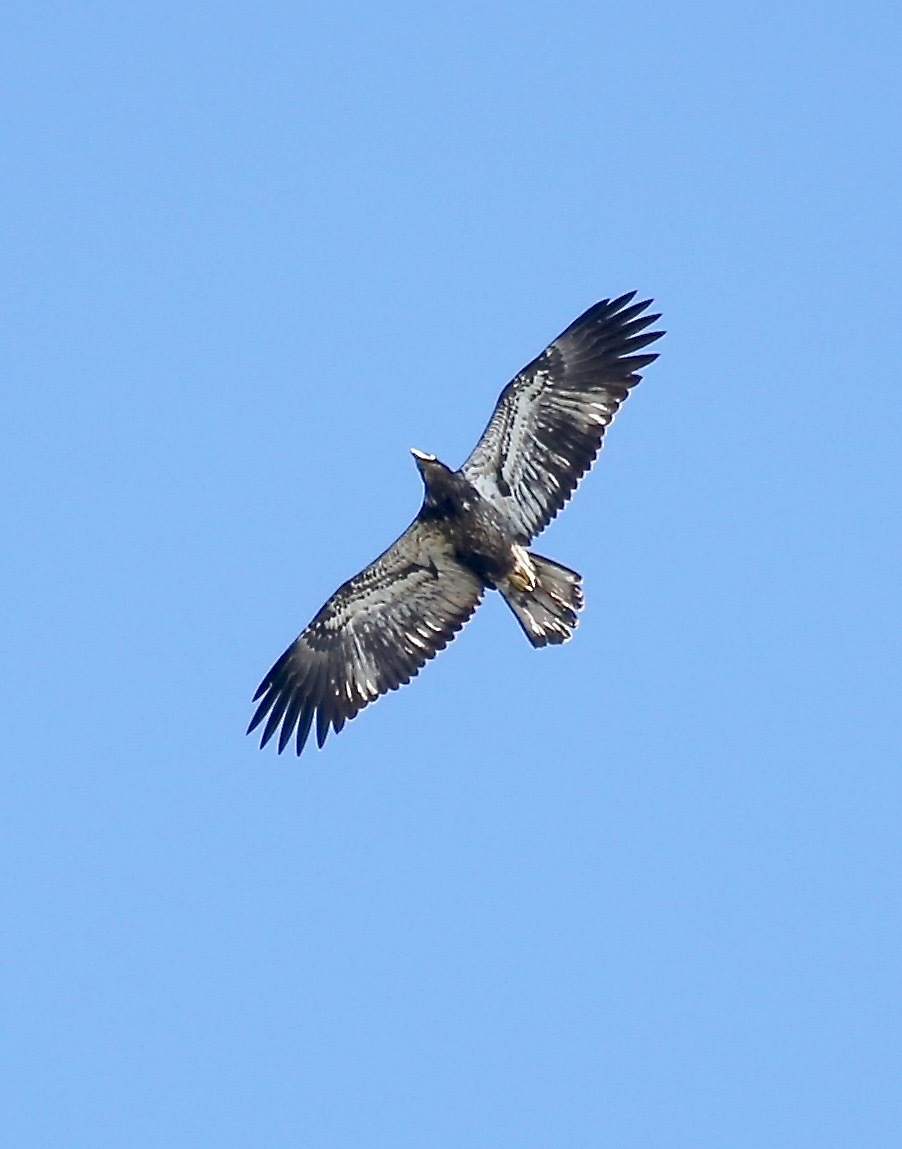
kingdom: Animalia
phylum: Chordata
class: Aves
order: Accipitriformes
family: Accipitridae
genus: Haliaeetus
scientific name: Haliaeetus leucocephalus
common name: Bald eagle
